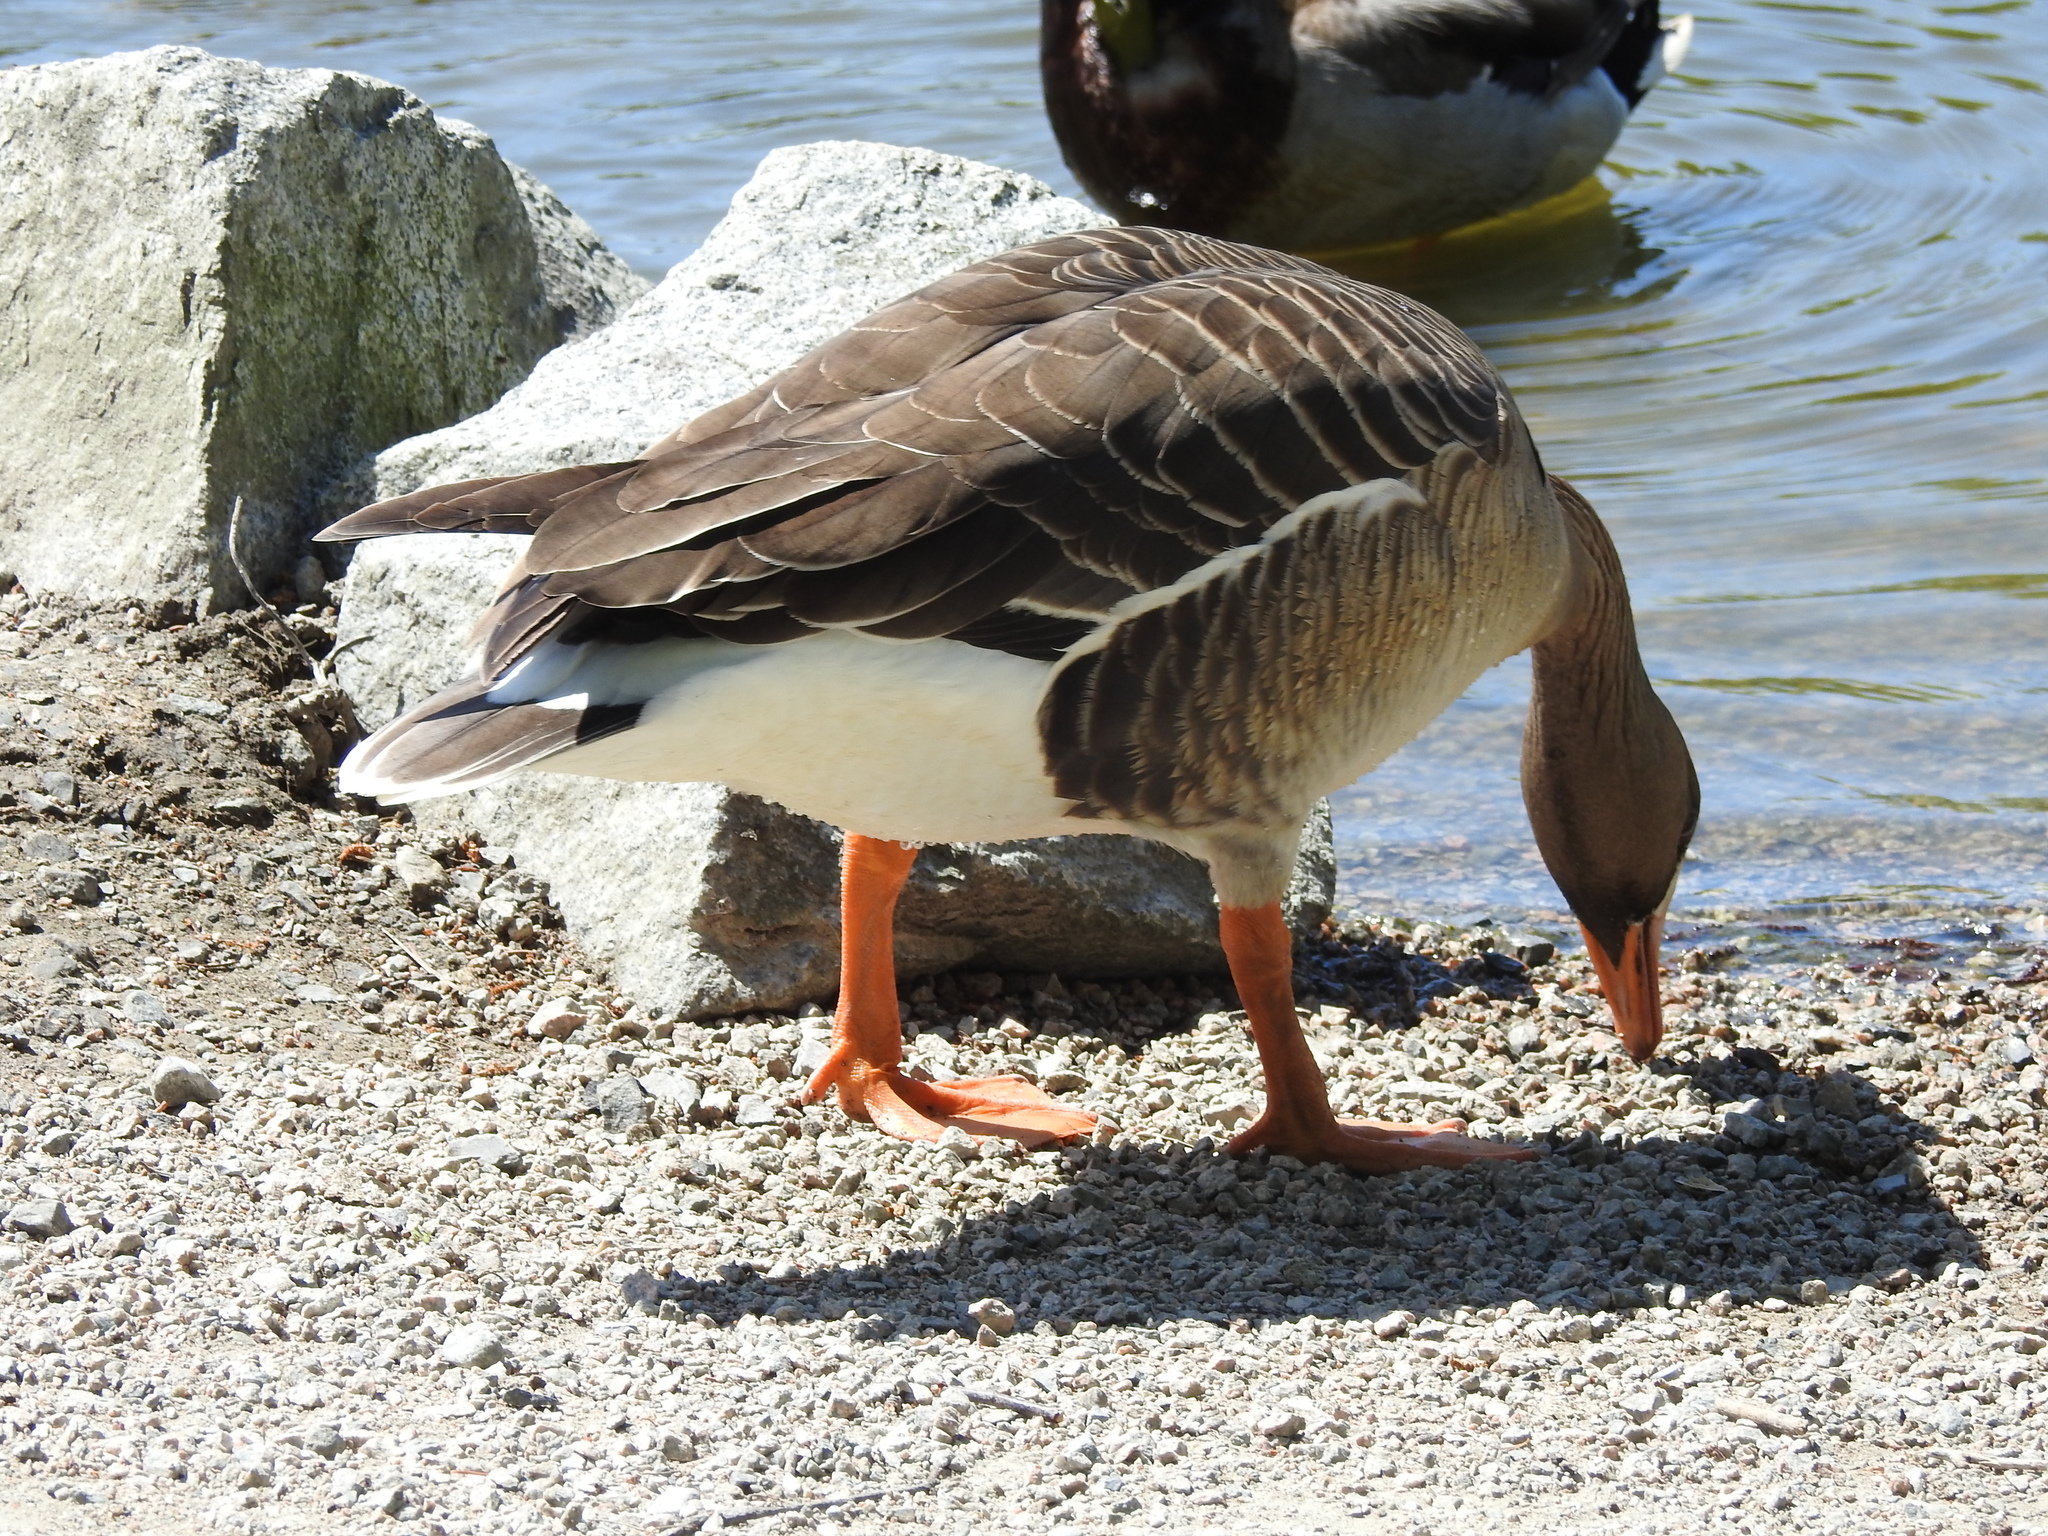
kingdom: Animalia
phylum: Chordata
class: Aves
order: Anseriformes
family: Anatidae
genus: Anser
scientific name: Anser albifrons
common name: Greater white-fronted goose
